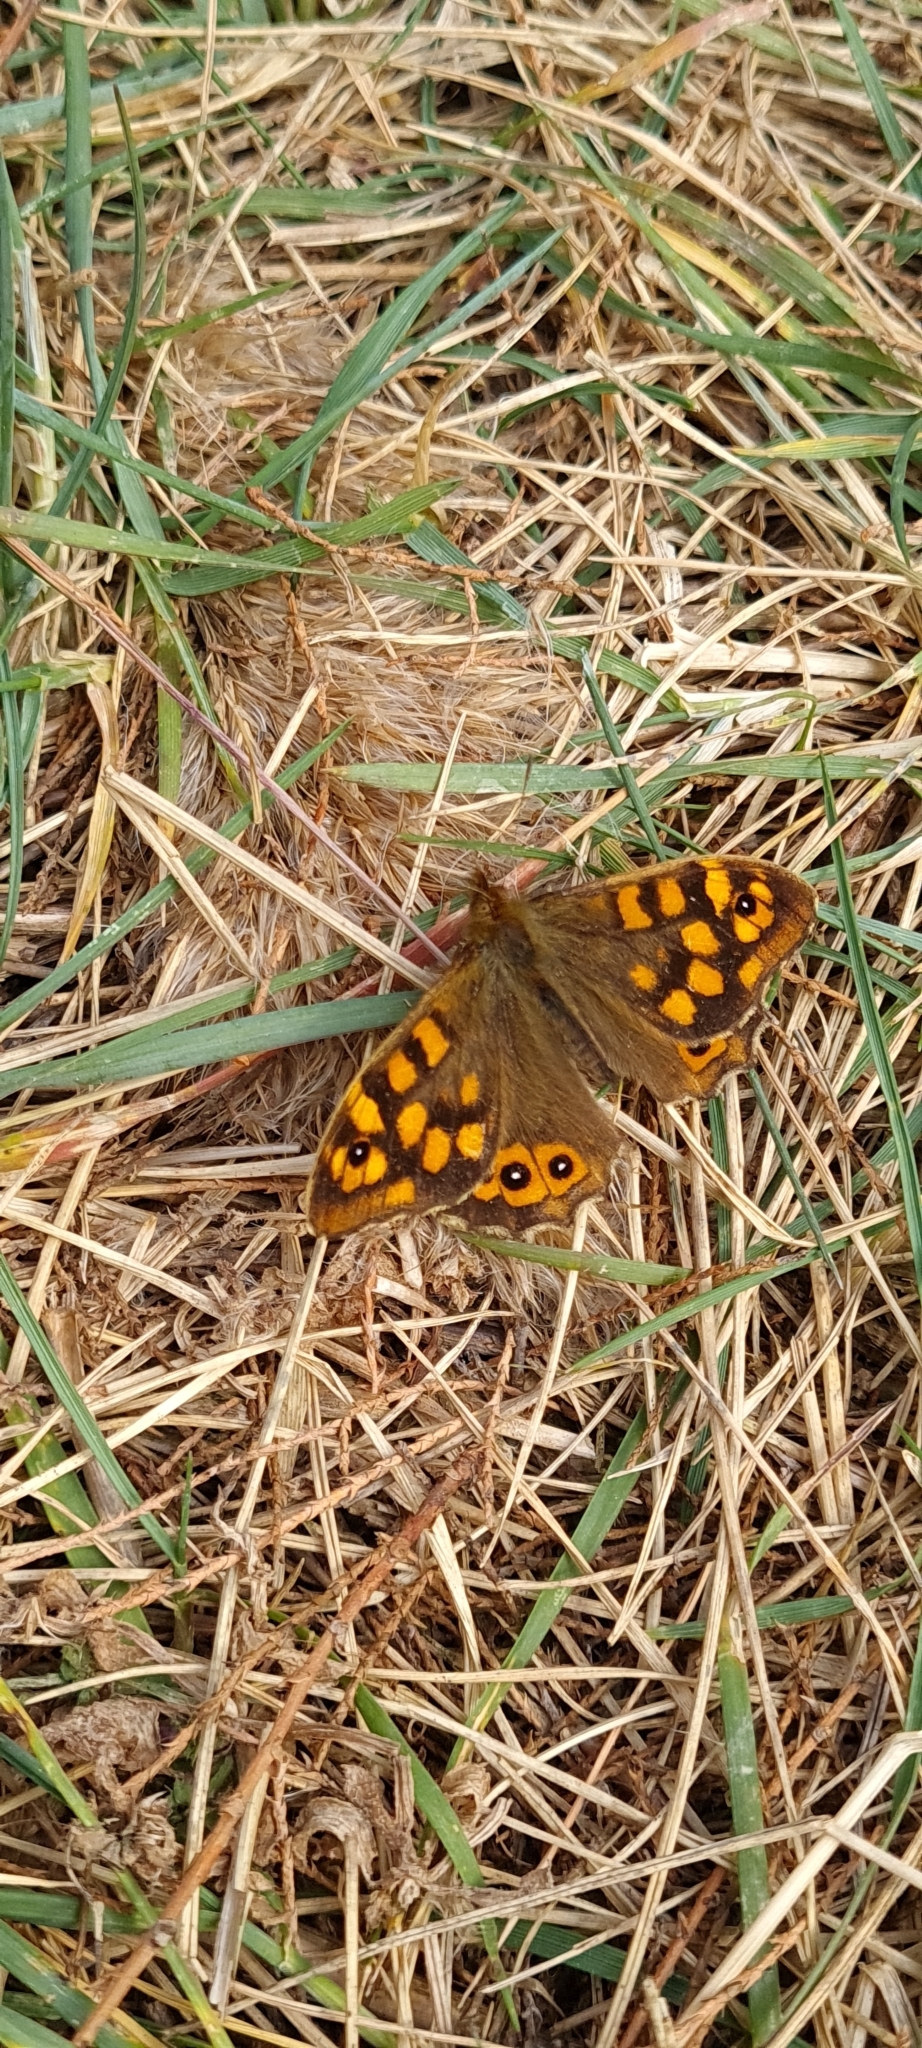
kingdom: Animalia
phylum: Arthropoda
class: Insecta
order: Lepidoptera
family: Nymphalidae
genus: Pararge
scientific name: Pararge aegeria
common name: Speckled wood
